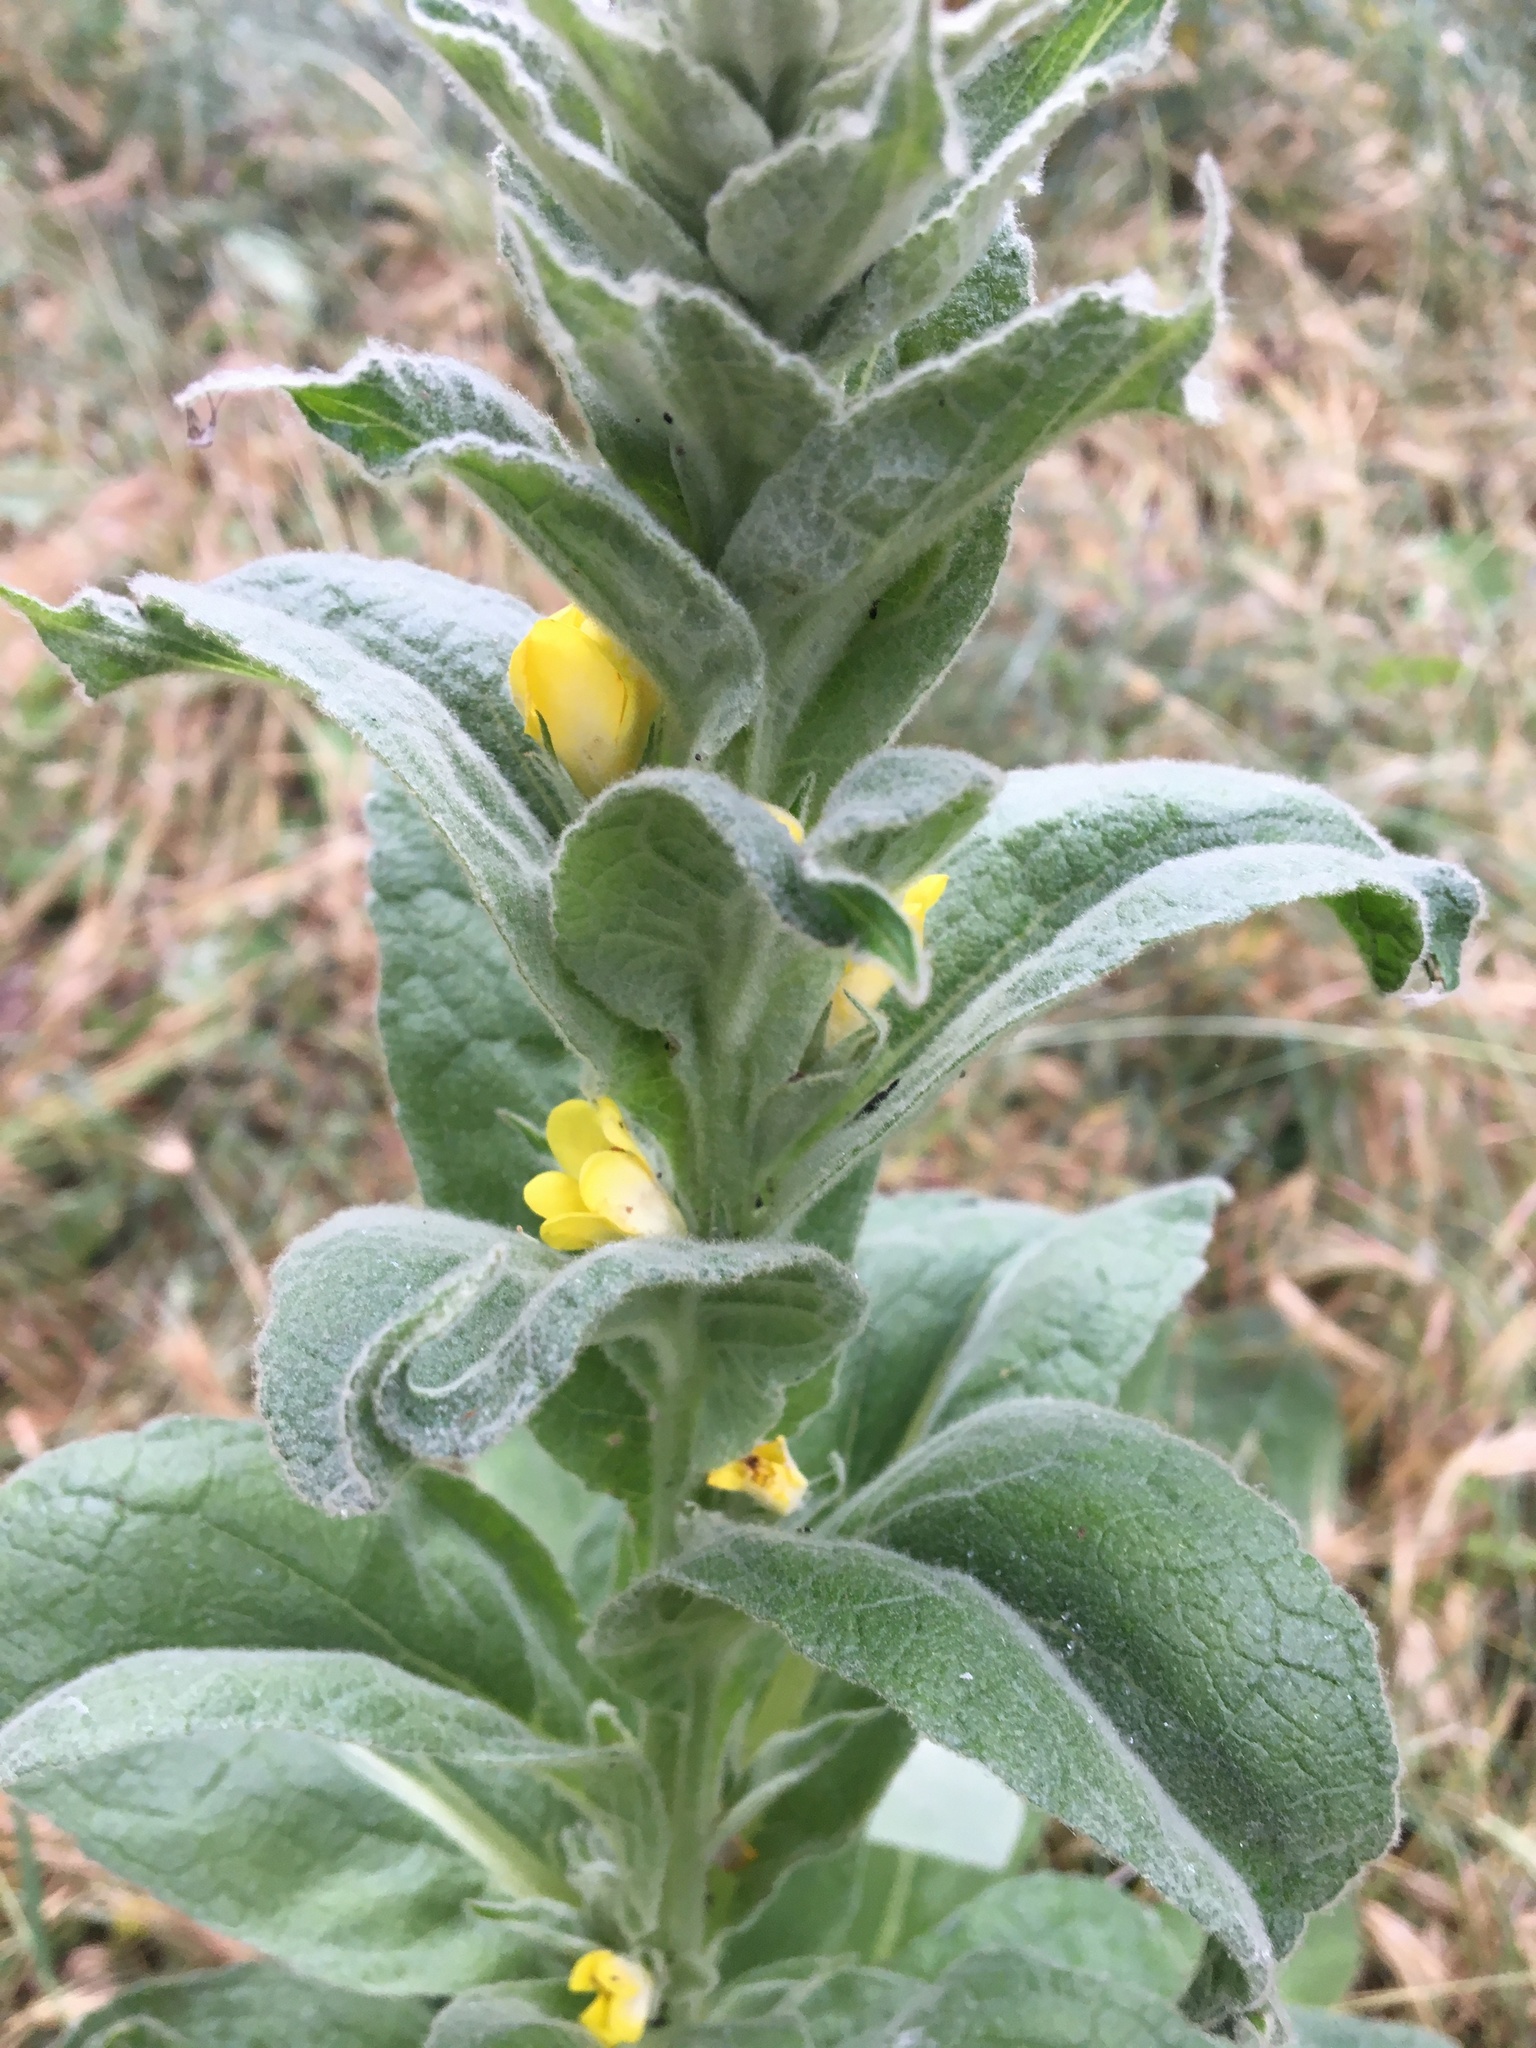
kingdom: Plantae
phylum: Tracheophyta
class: Magnoliopsida
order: Lamiales
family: Scrophulariaceae
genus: Verbascum
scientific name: Verbascum thapsus
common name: Common mullein
